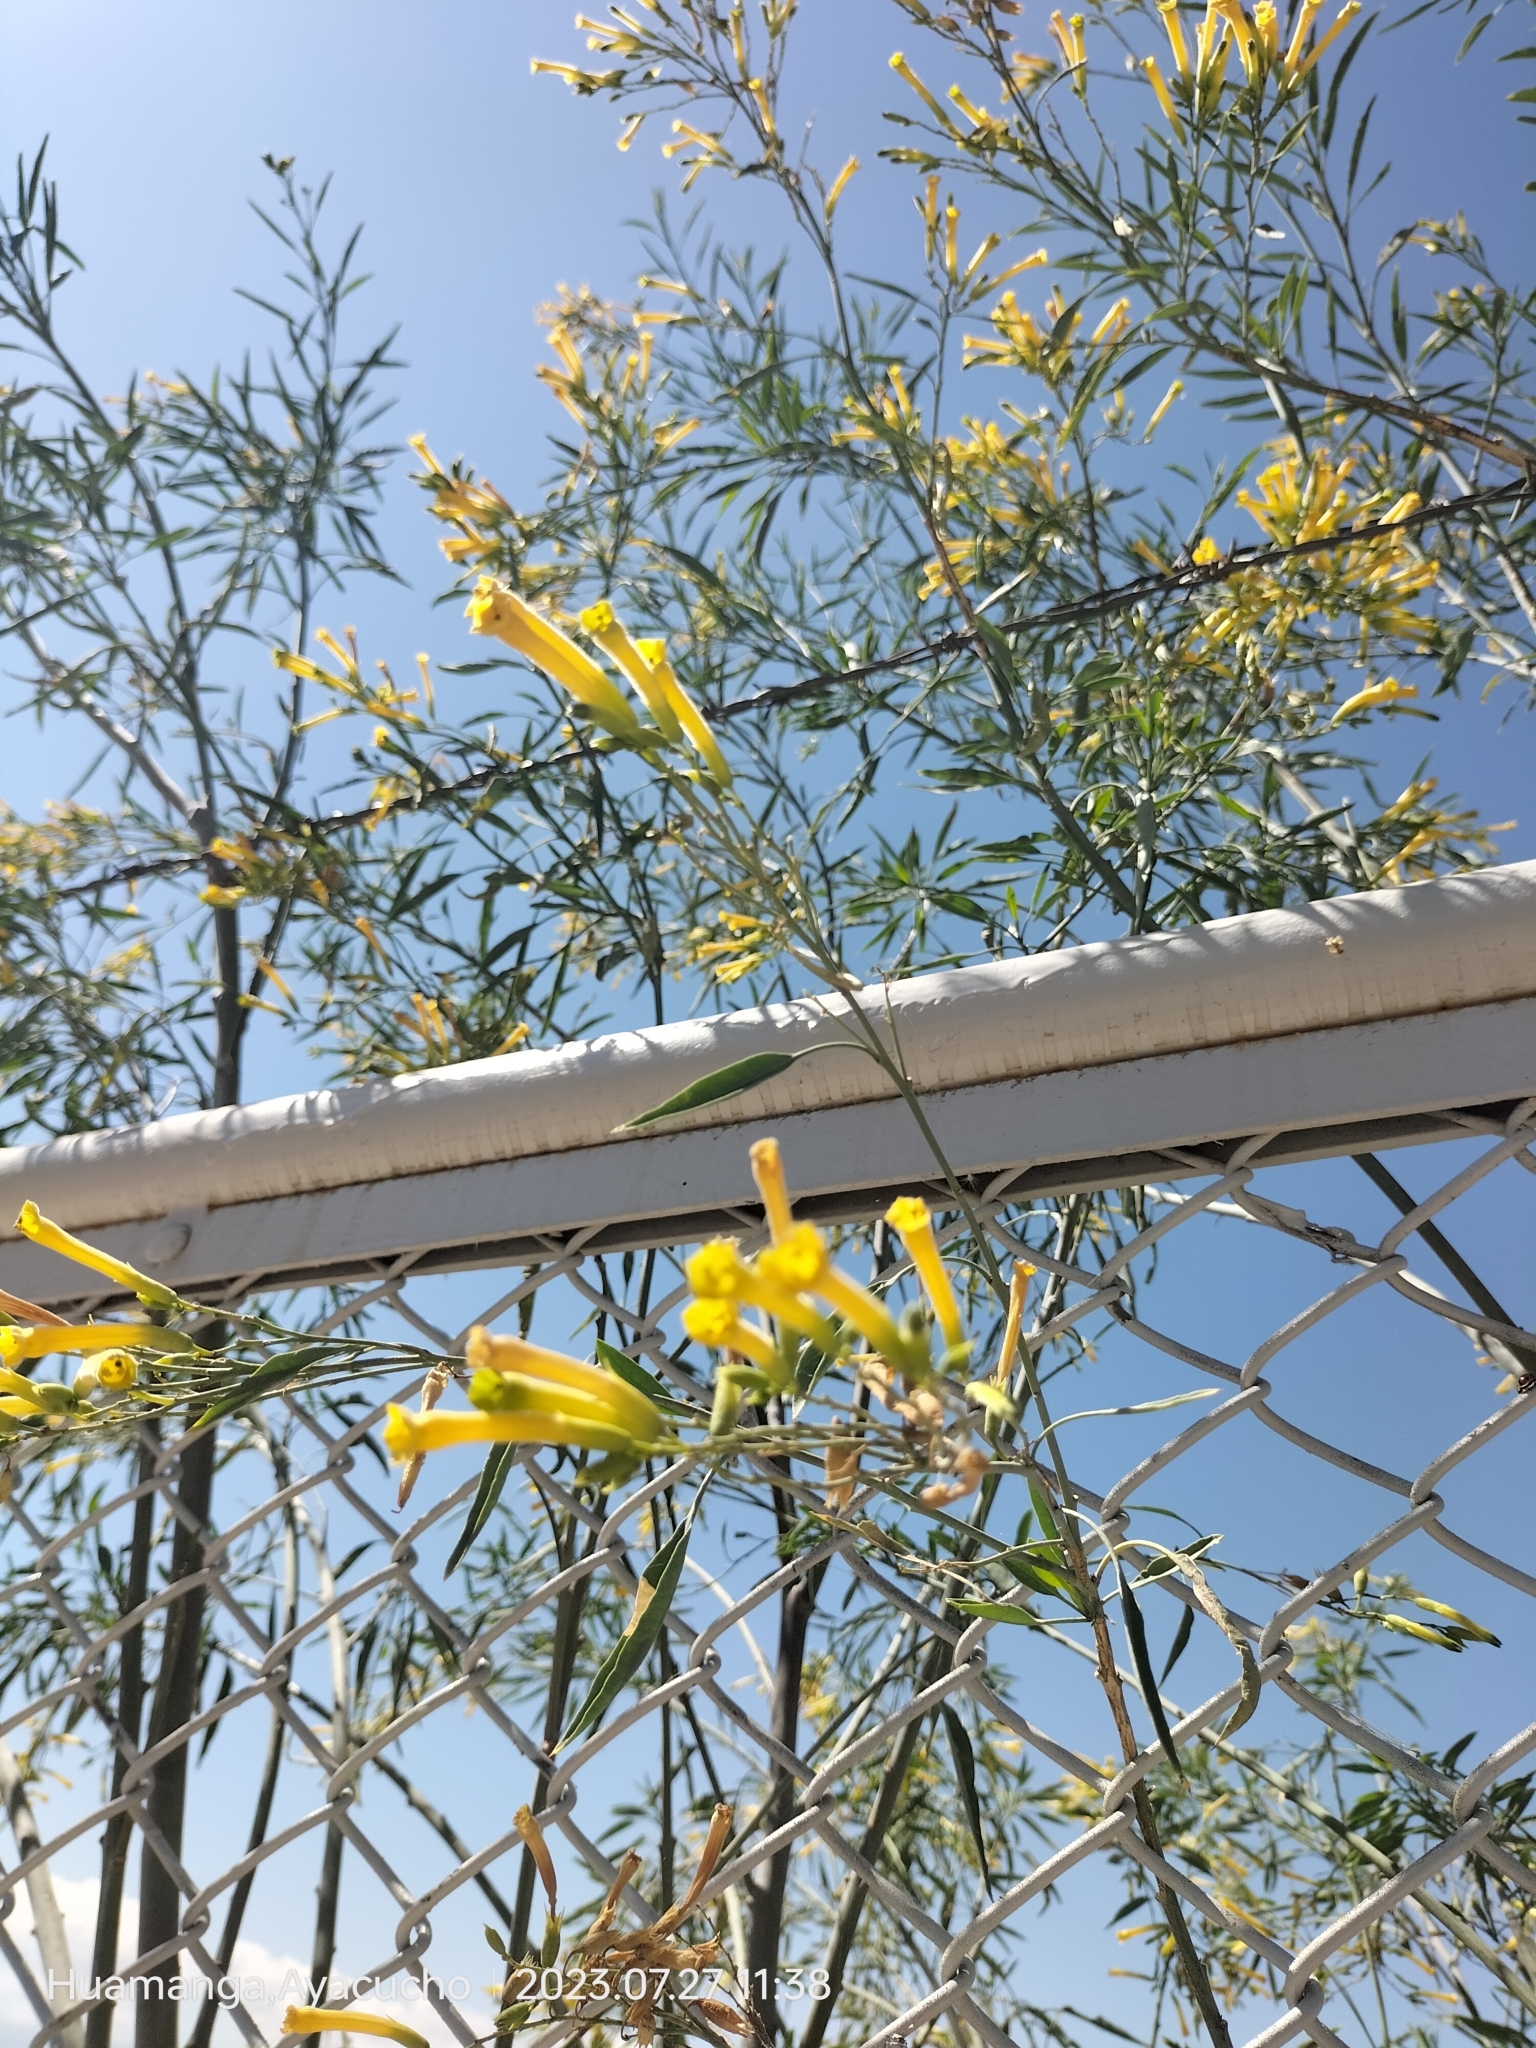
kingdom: Plantae
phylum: Tracheophyta
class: Magnoliopsida
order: Solanales
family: Solanaceae
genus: Nicotiana
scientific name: Nicotiana glauca
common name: Tree tobacco
